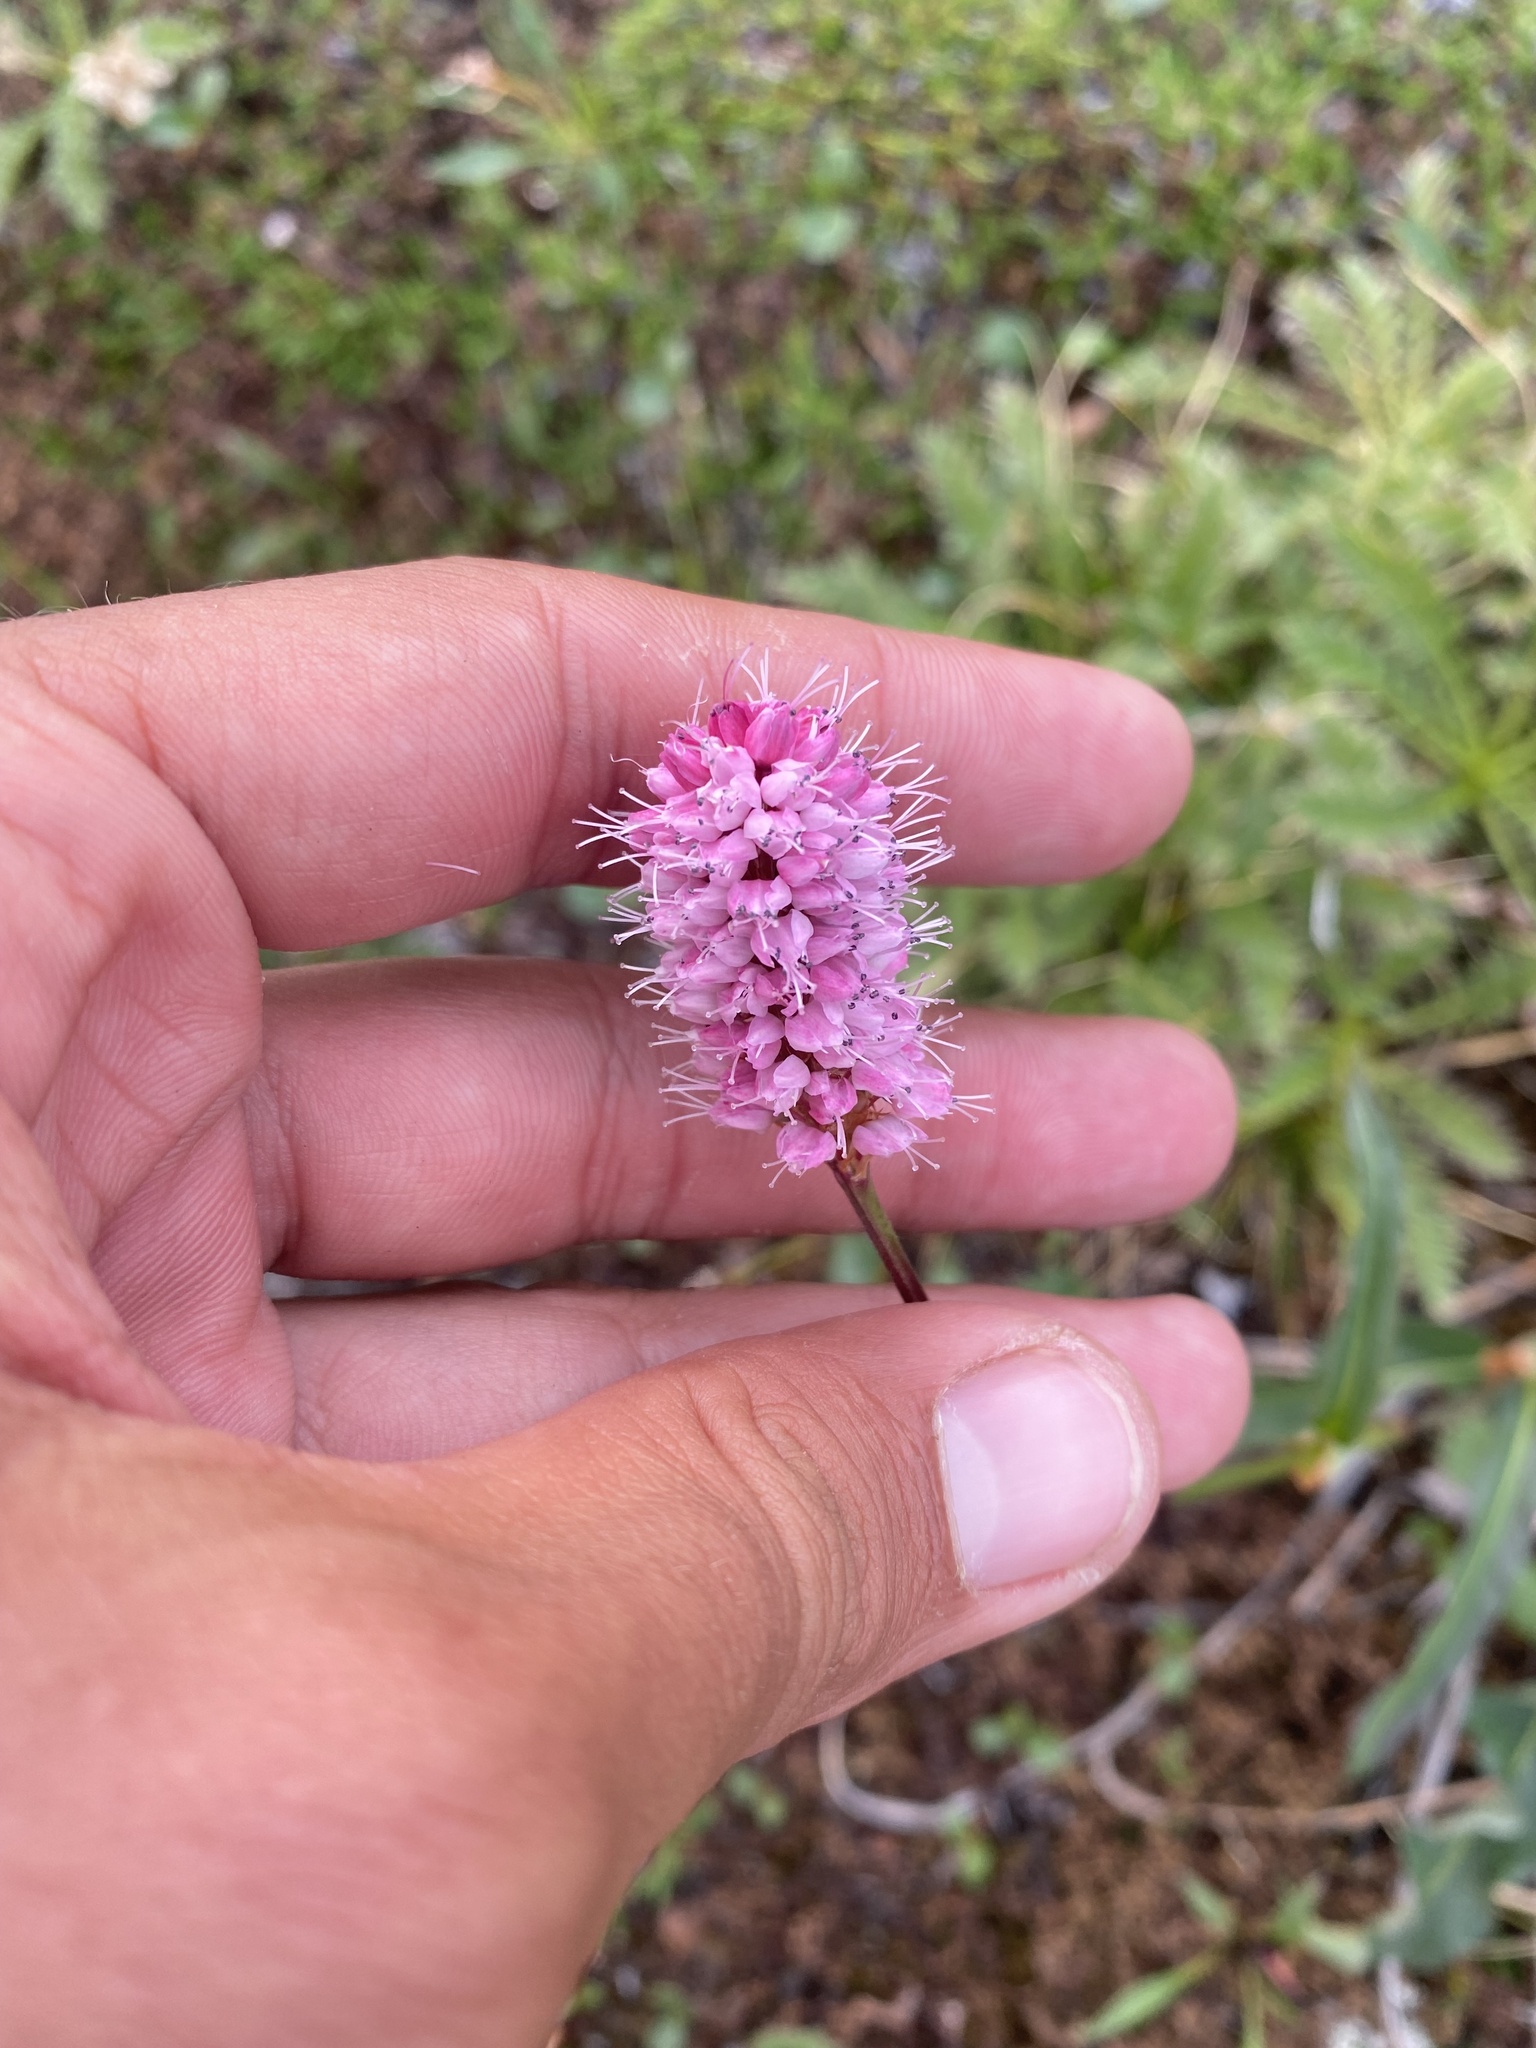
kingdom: Plantae
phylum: Tracheophyta
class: Magnoliopsida
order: Caryophyllales
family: Polygonaceae
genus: Bistorta
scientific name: Bistorta plumosa
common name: Meadow bistort
